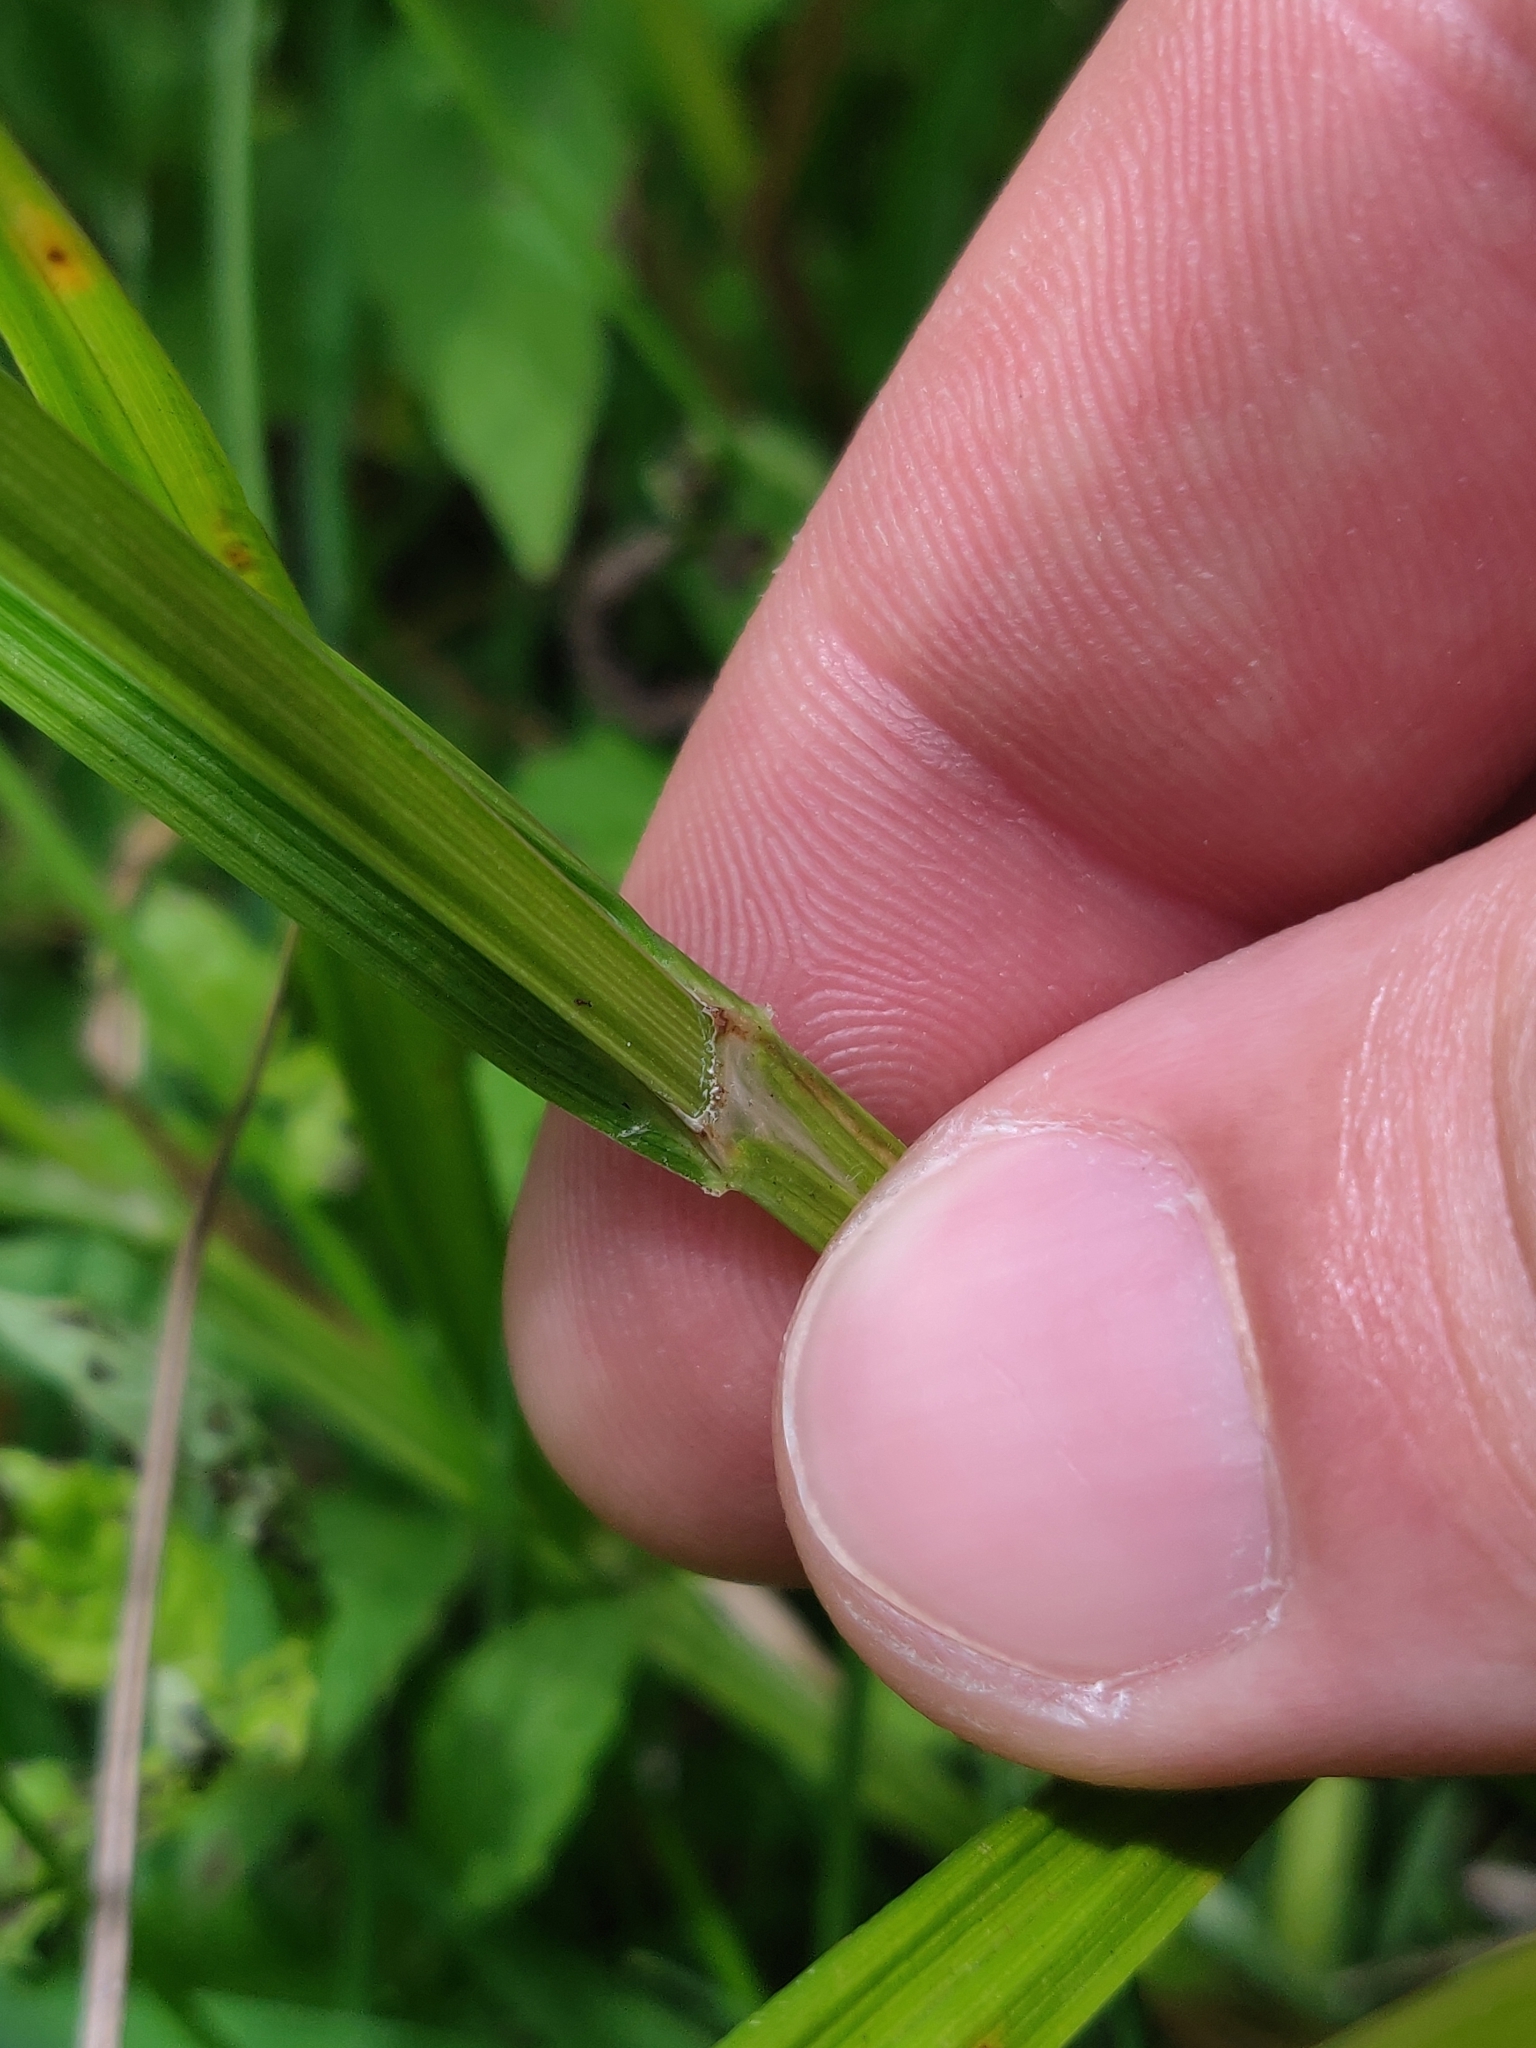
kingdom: Plantae
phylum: Tracheophyta
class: Liliopsida
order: Poales
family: Cyperaceae
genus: Carex
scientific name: Carex cristatella
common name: Crested oval sedge
